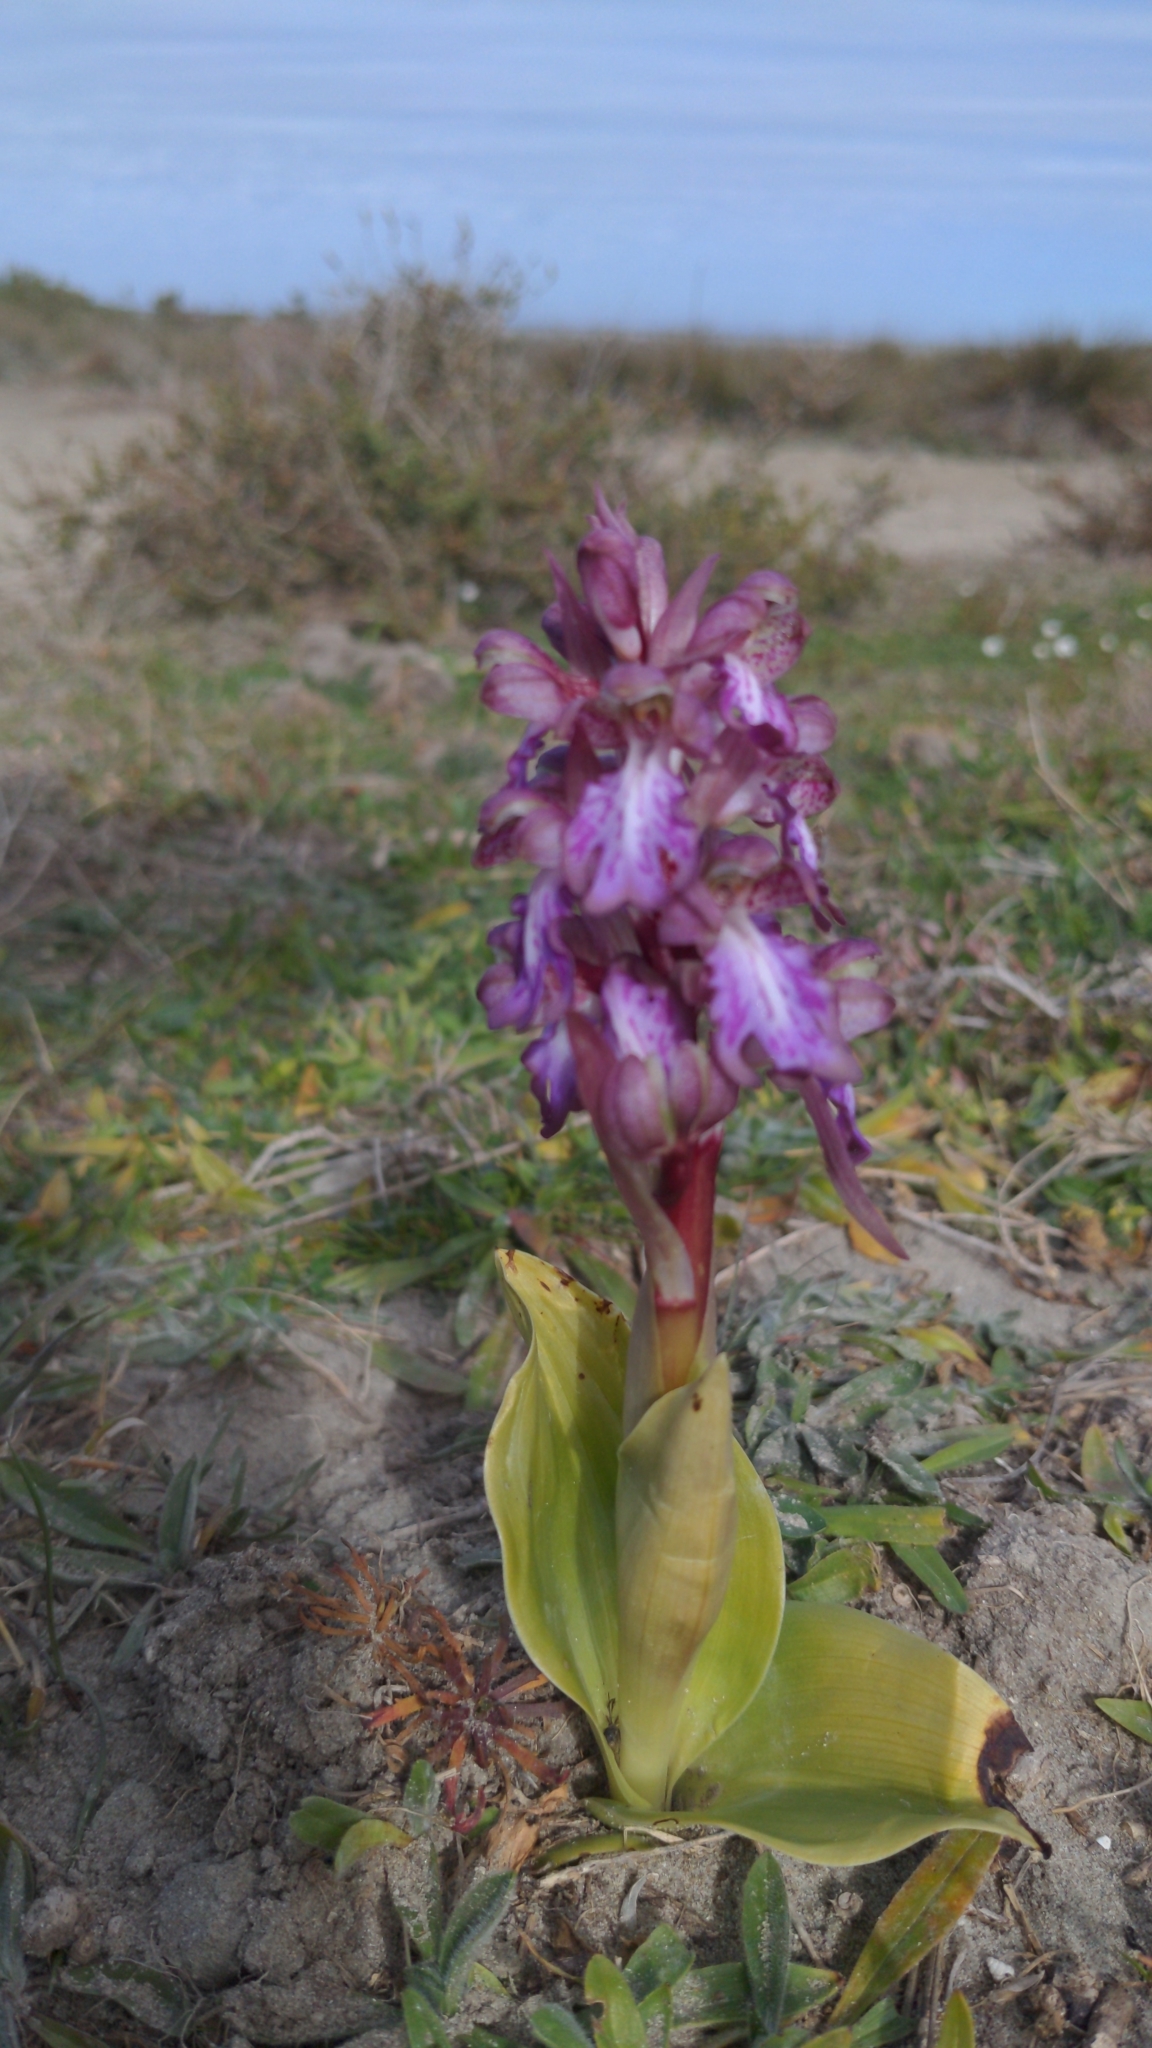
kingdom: Plantae
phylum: Tracheophyta
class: Liliopsida
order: Asparagales
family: Orchidaceae
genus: Himantoglossum
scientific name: Himantoglossum robertianum
